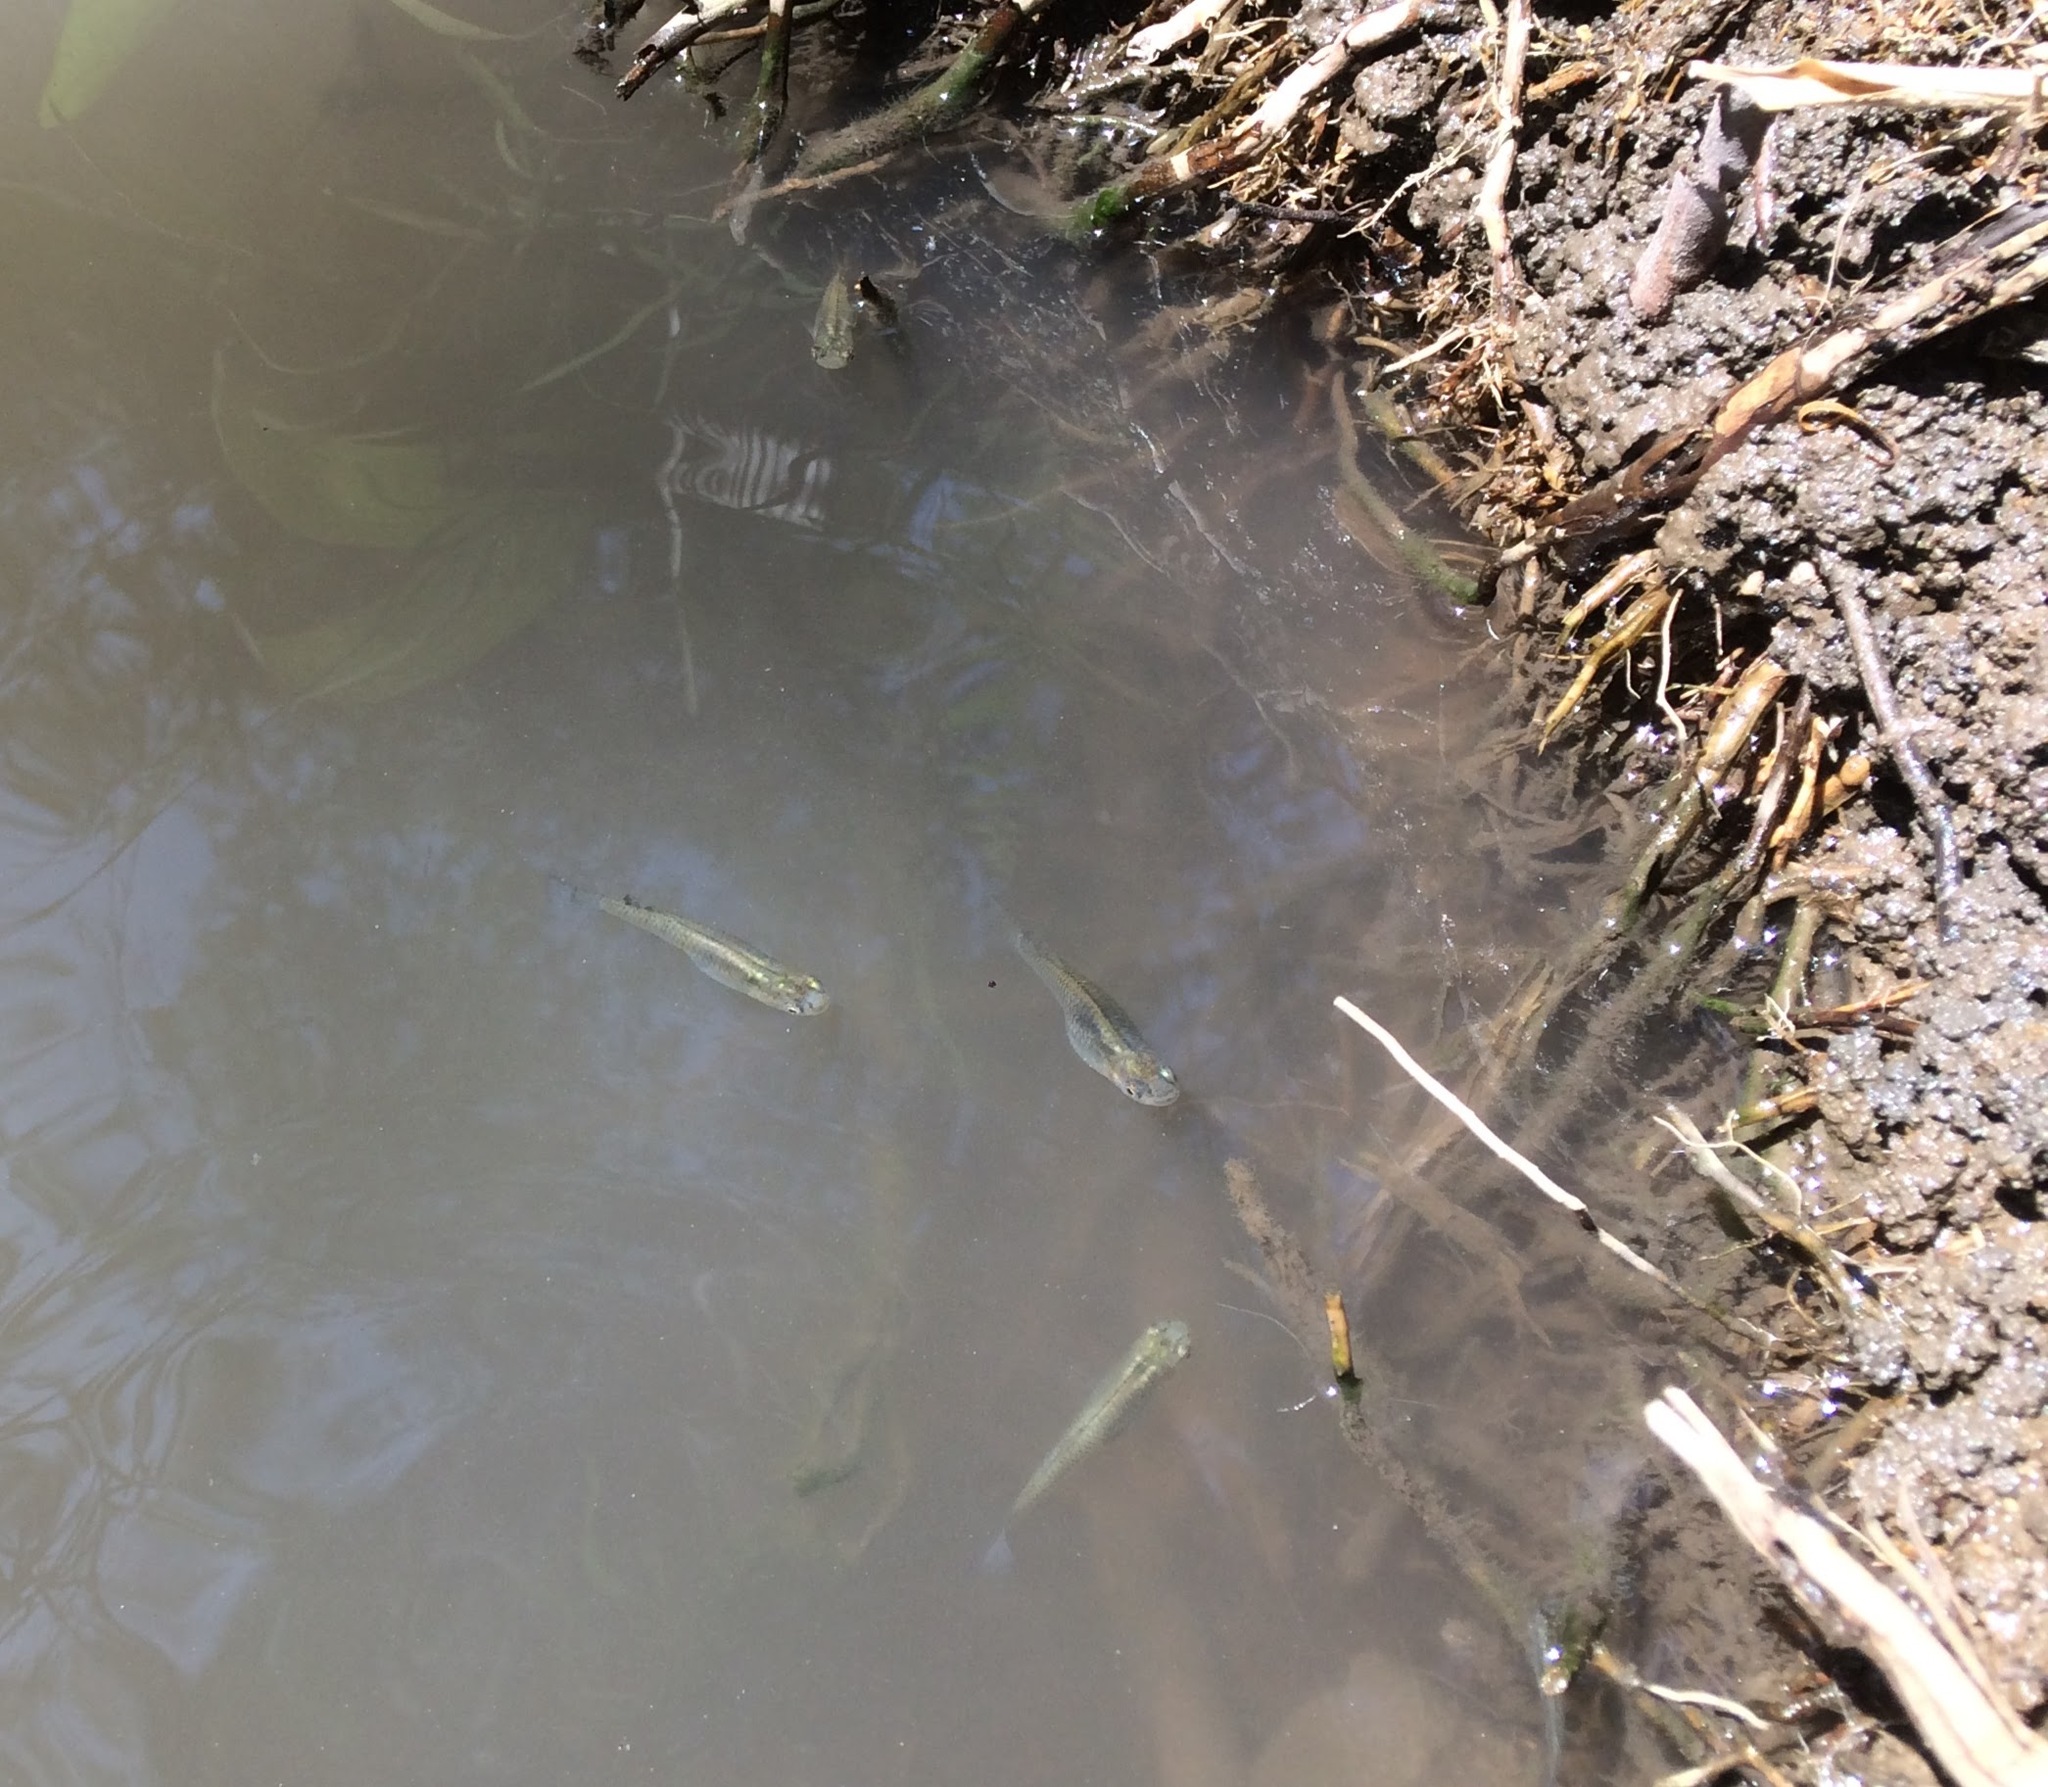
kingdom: Animalia
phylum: Chordata
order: Cyprinodontiformes
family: Poeciliidae
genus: Gambusia
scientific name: Gambusia affinis
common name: Mosquitofish
